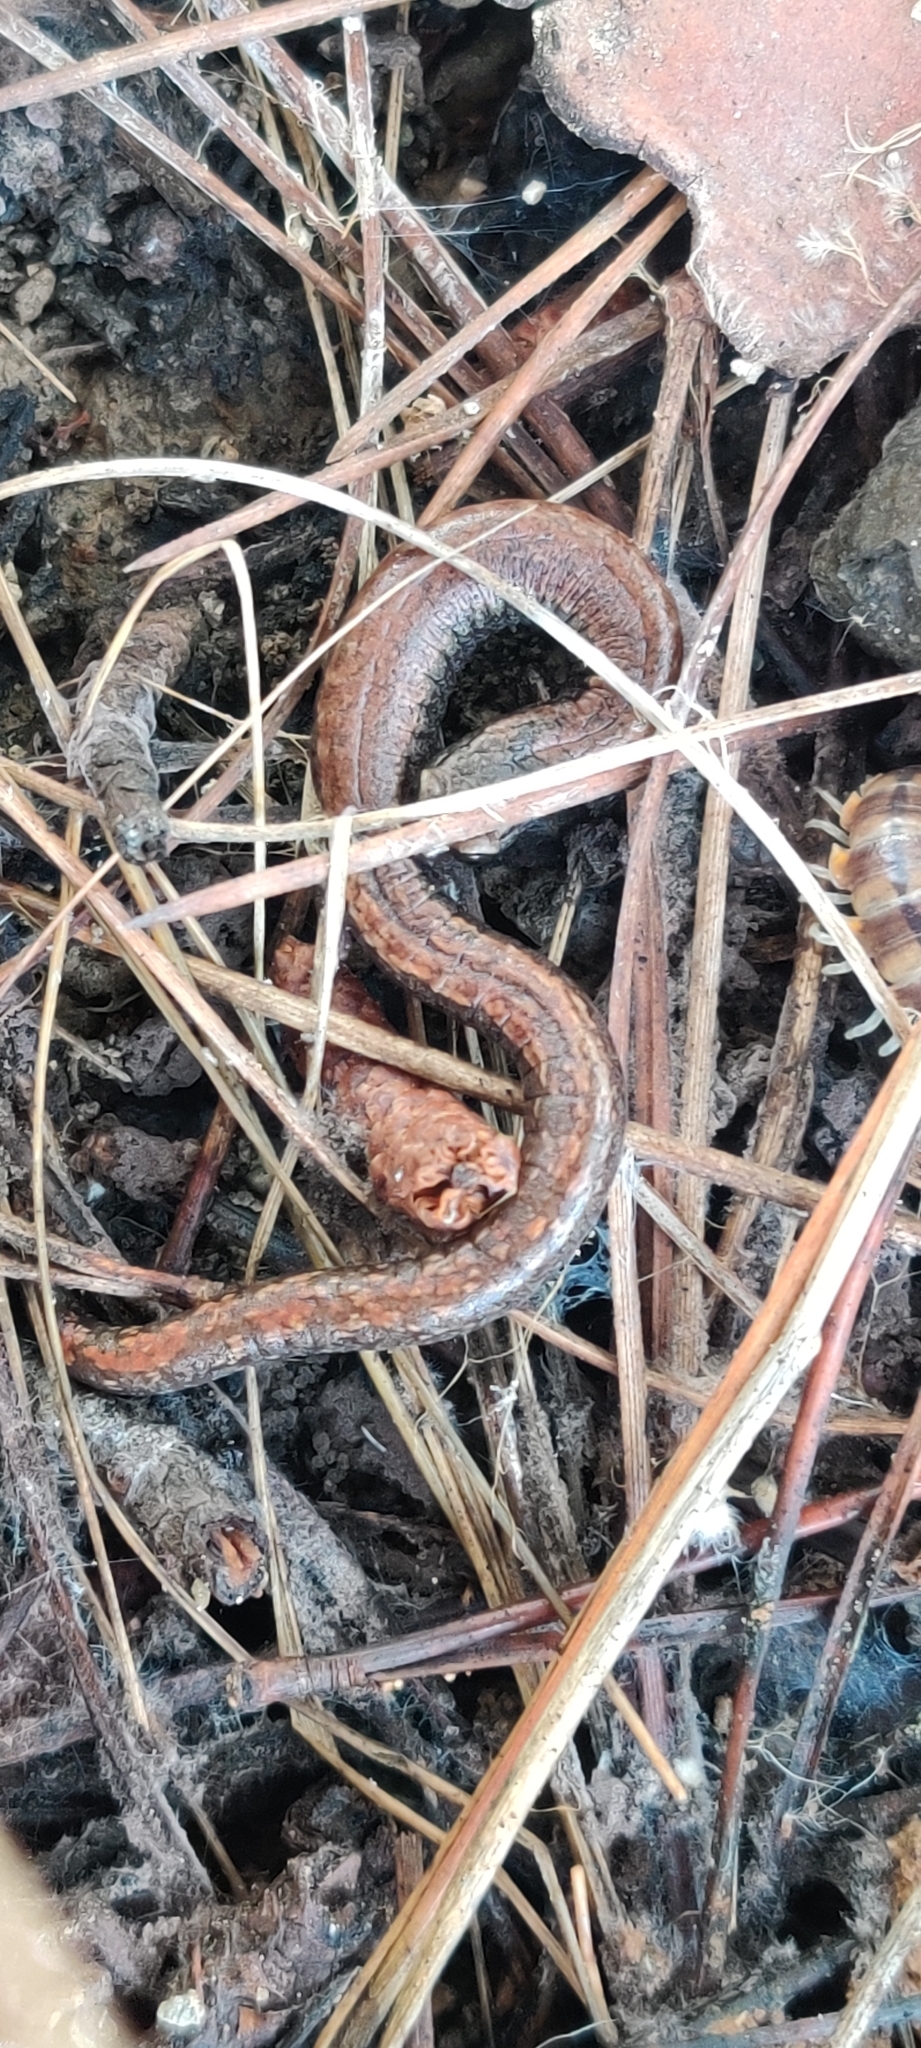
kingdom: Animalia
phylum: Chordata
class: Amphibia
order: Caudata
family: Plethodontidae
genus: Batrachoseps
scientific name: Batrachoseps attenuatus
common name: California slender salamander
